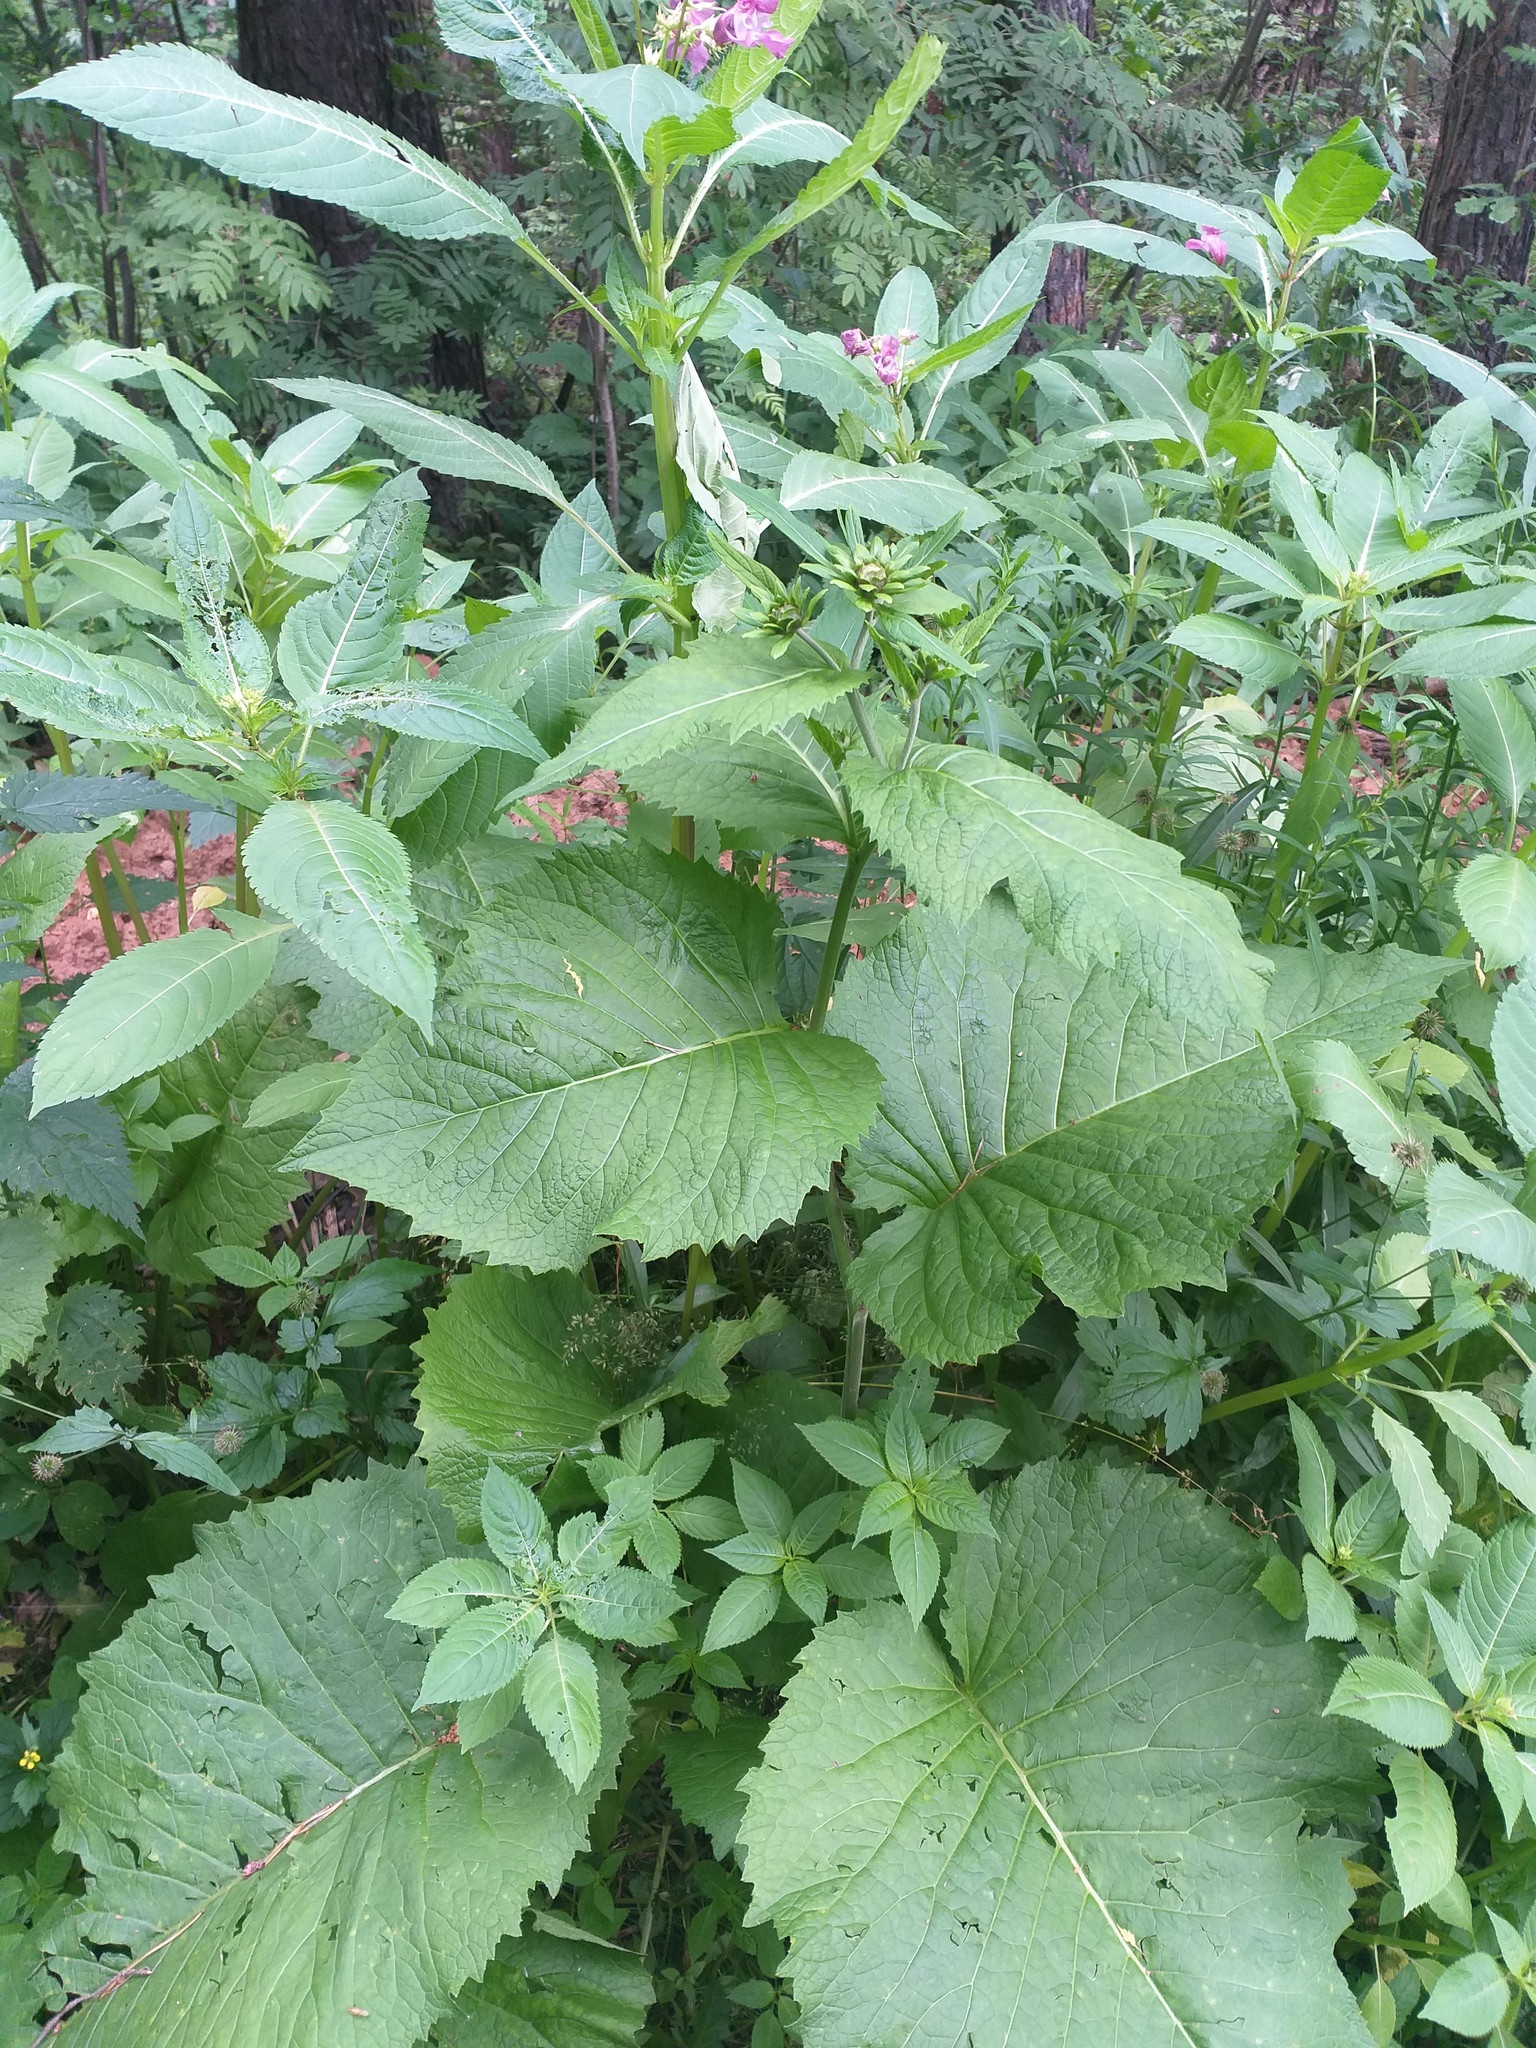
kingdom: Plantae
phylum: Tracheophyta
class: Magnoliopsida
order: Asterales
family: Asteraceae
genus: Telekia
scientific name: Telekia speciosa
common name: Yellow oxeye
